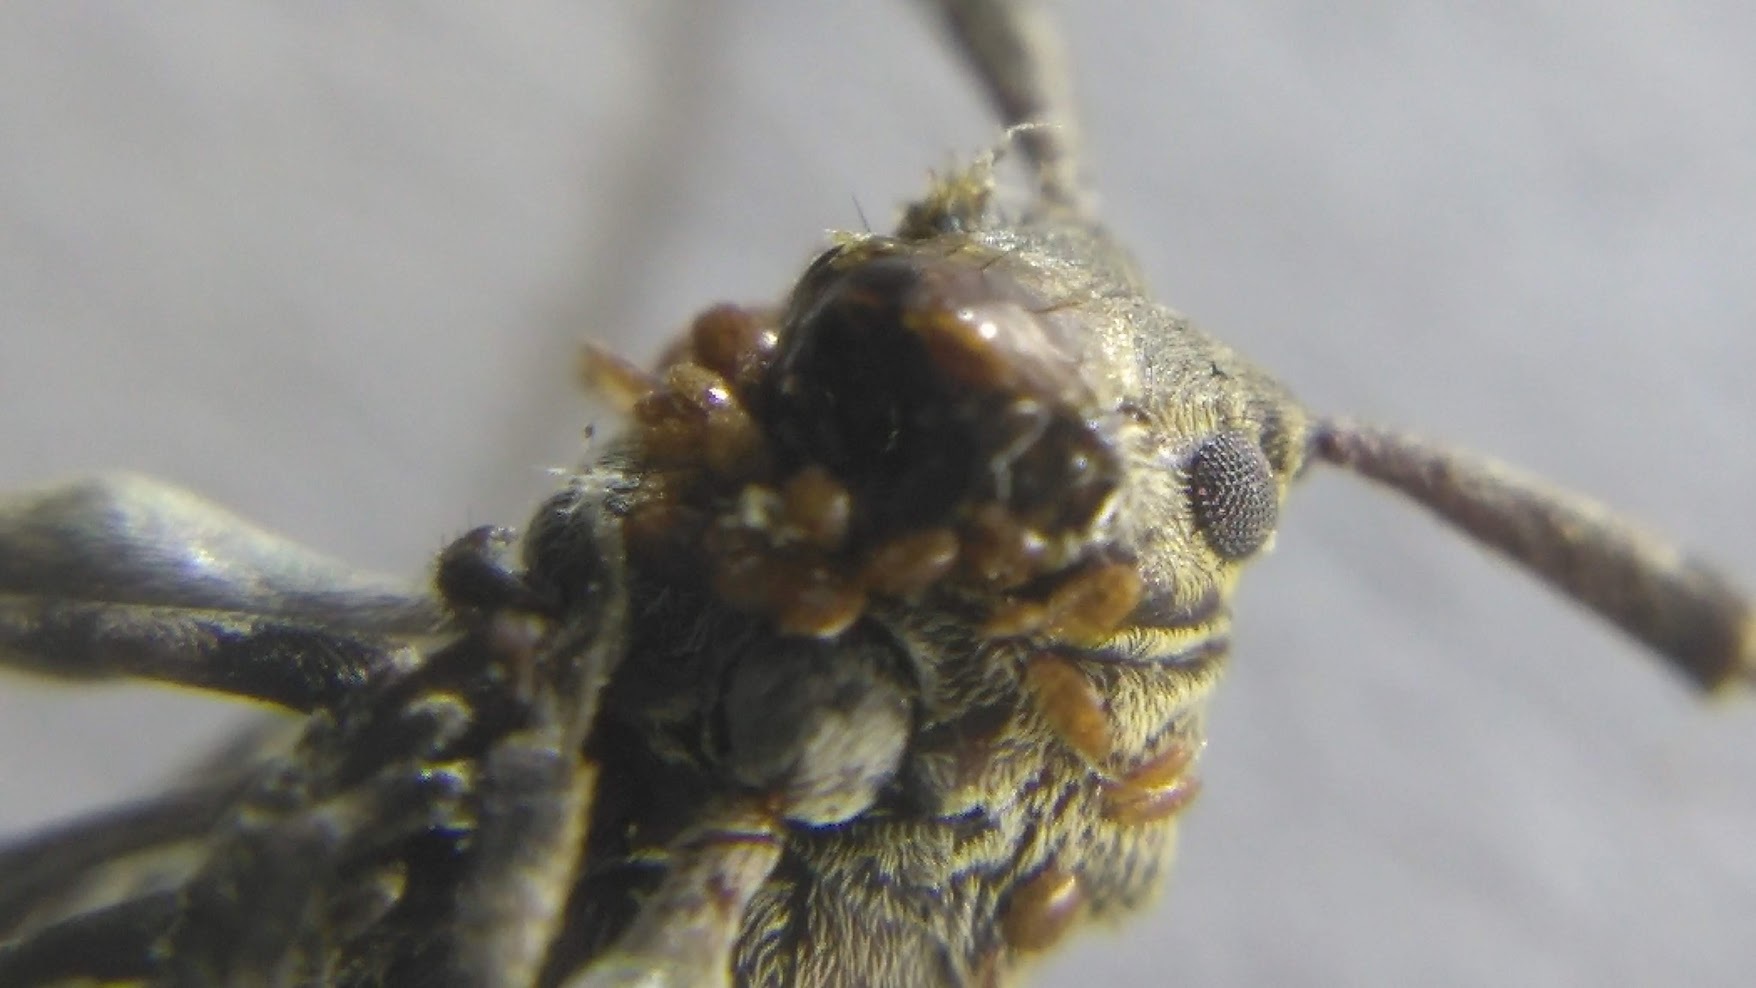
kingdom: Animalia
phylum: Arthropoda
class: Insecta
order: Coleoptera
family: Cerambycidae
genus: Astylopsis
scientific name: Astylopsis sexguttata
